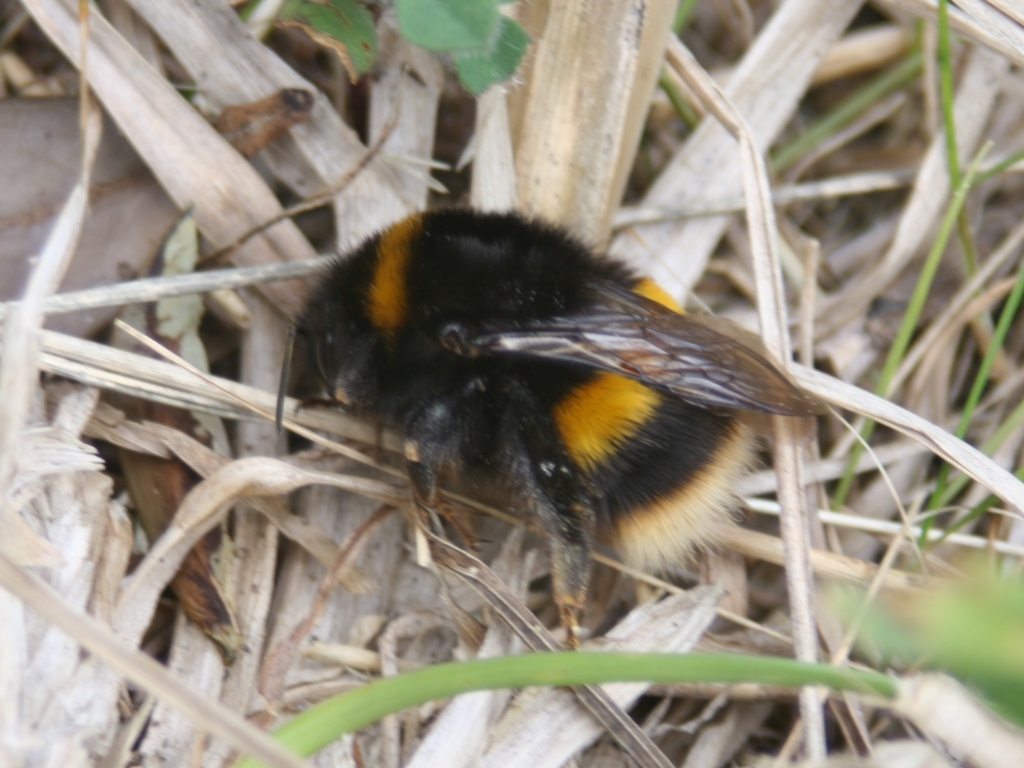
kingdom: Animalia
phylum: Arthropoda
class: Insecta
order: Hymenoptera
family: Apidae
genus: Bombus
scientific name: Bombus terrestris
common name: Buff-tailed bumblebee
